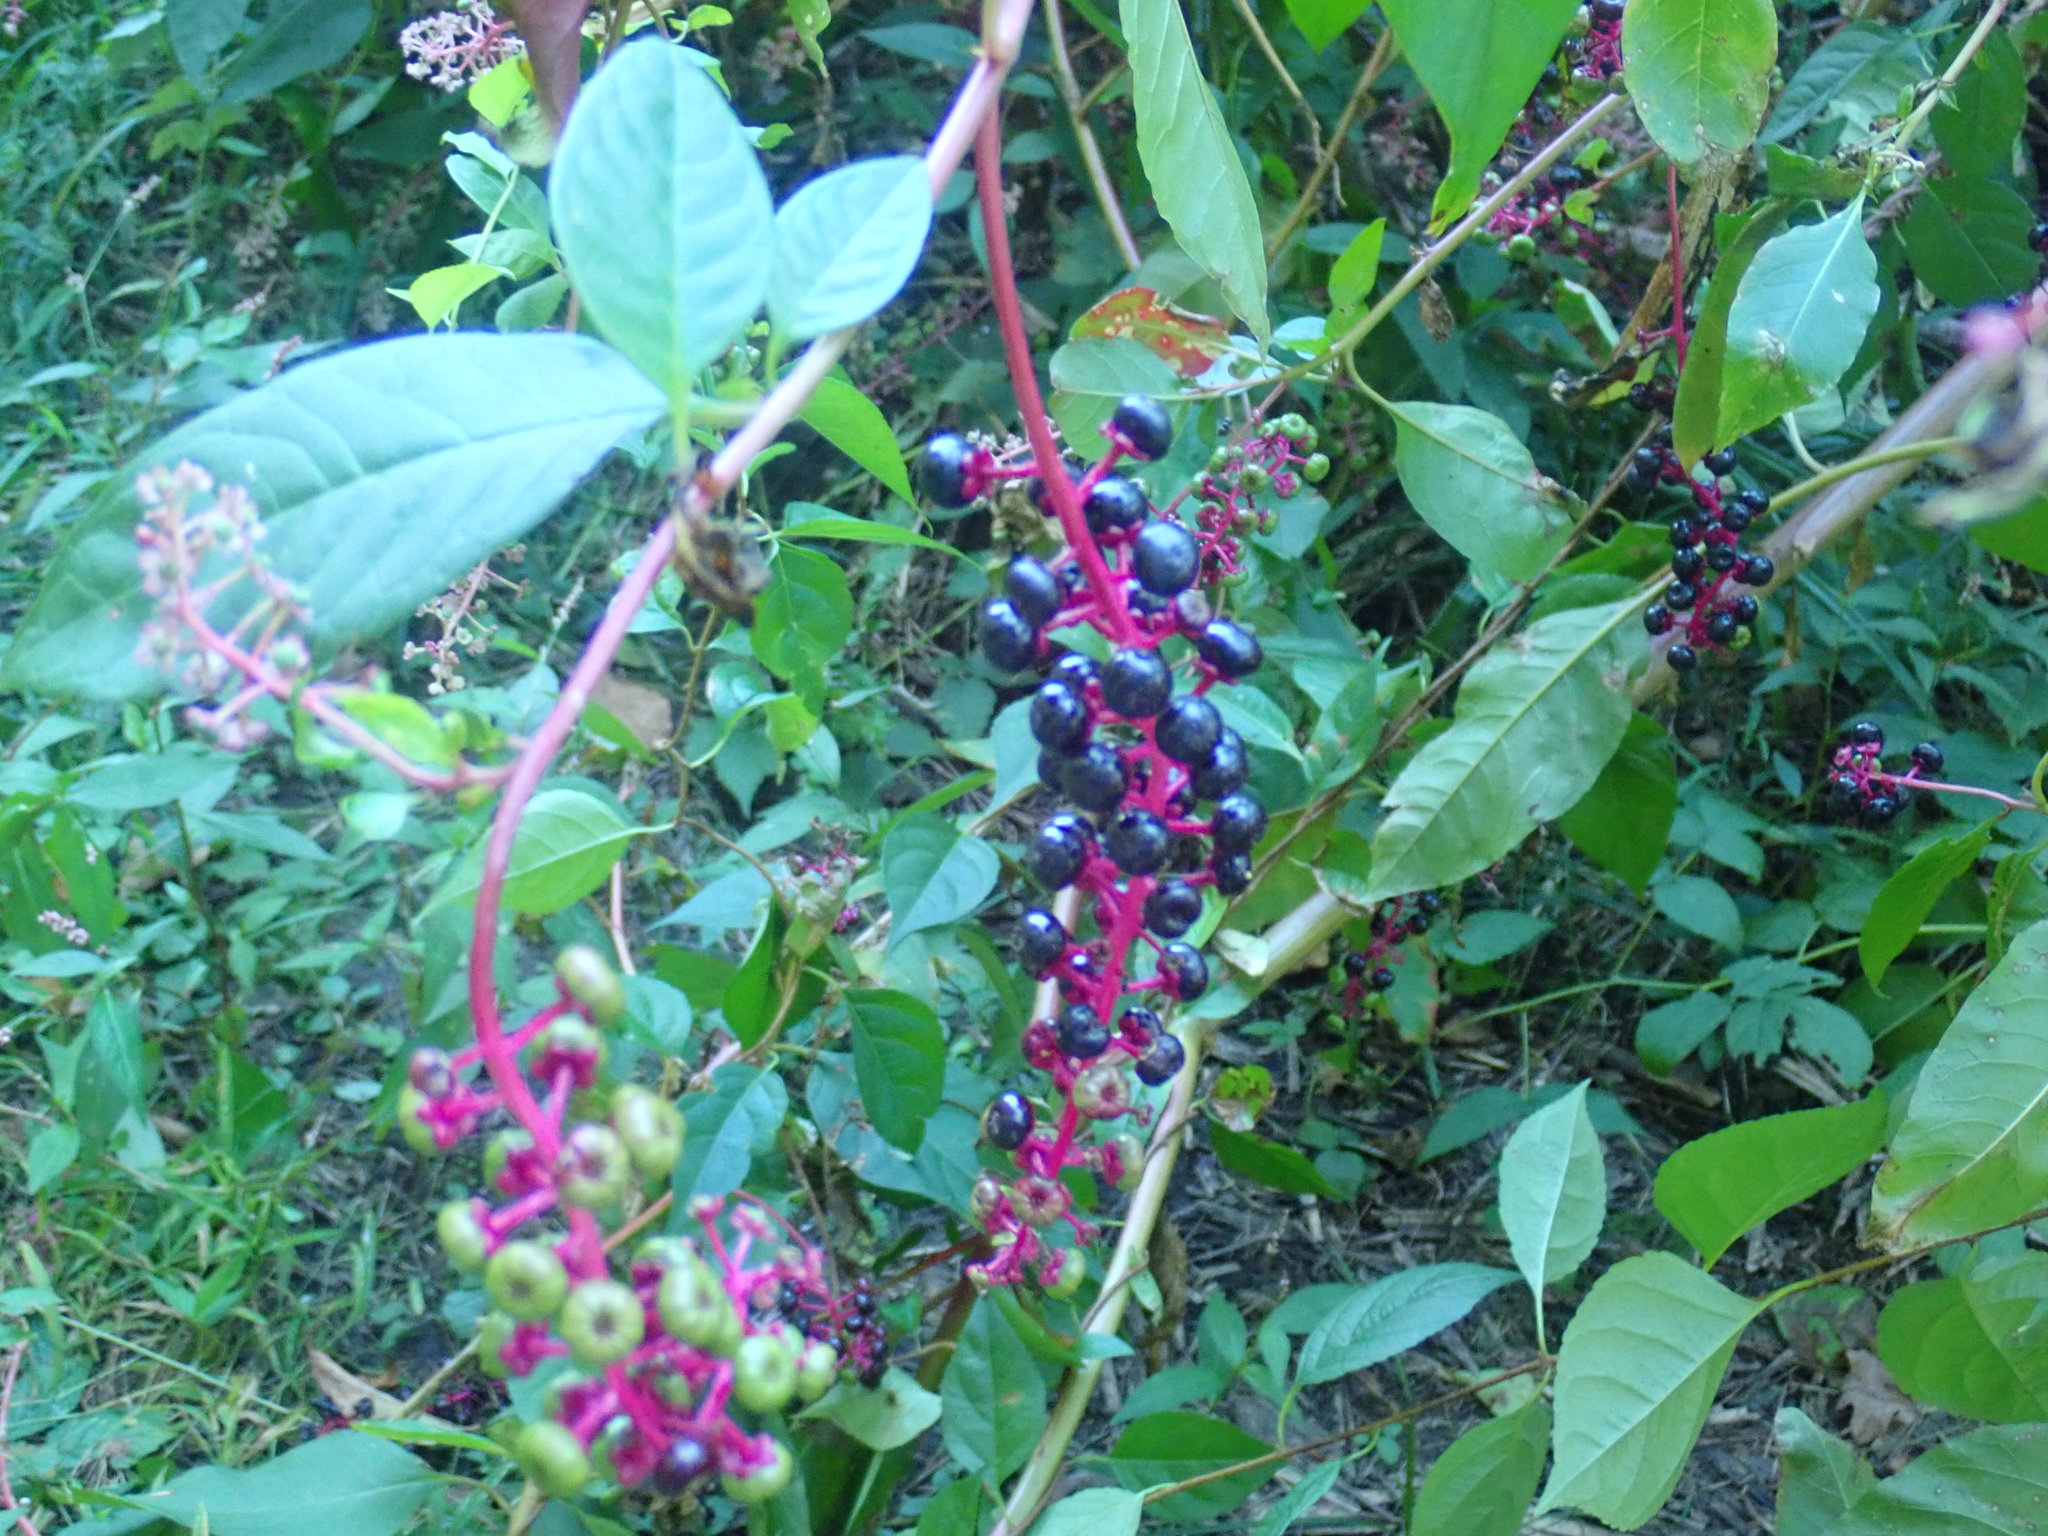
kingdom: Plantae
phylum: Tracheophyta
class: Magnoliopsida
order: Caryophyllales
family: Phytolaccaceae
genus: Phytolacca
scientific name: Phytolacca americana
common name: American pokeweed
